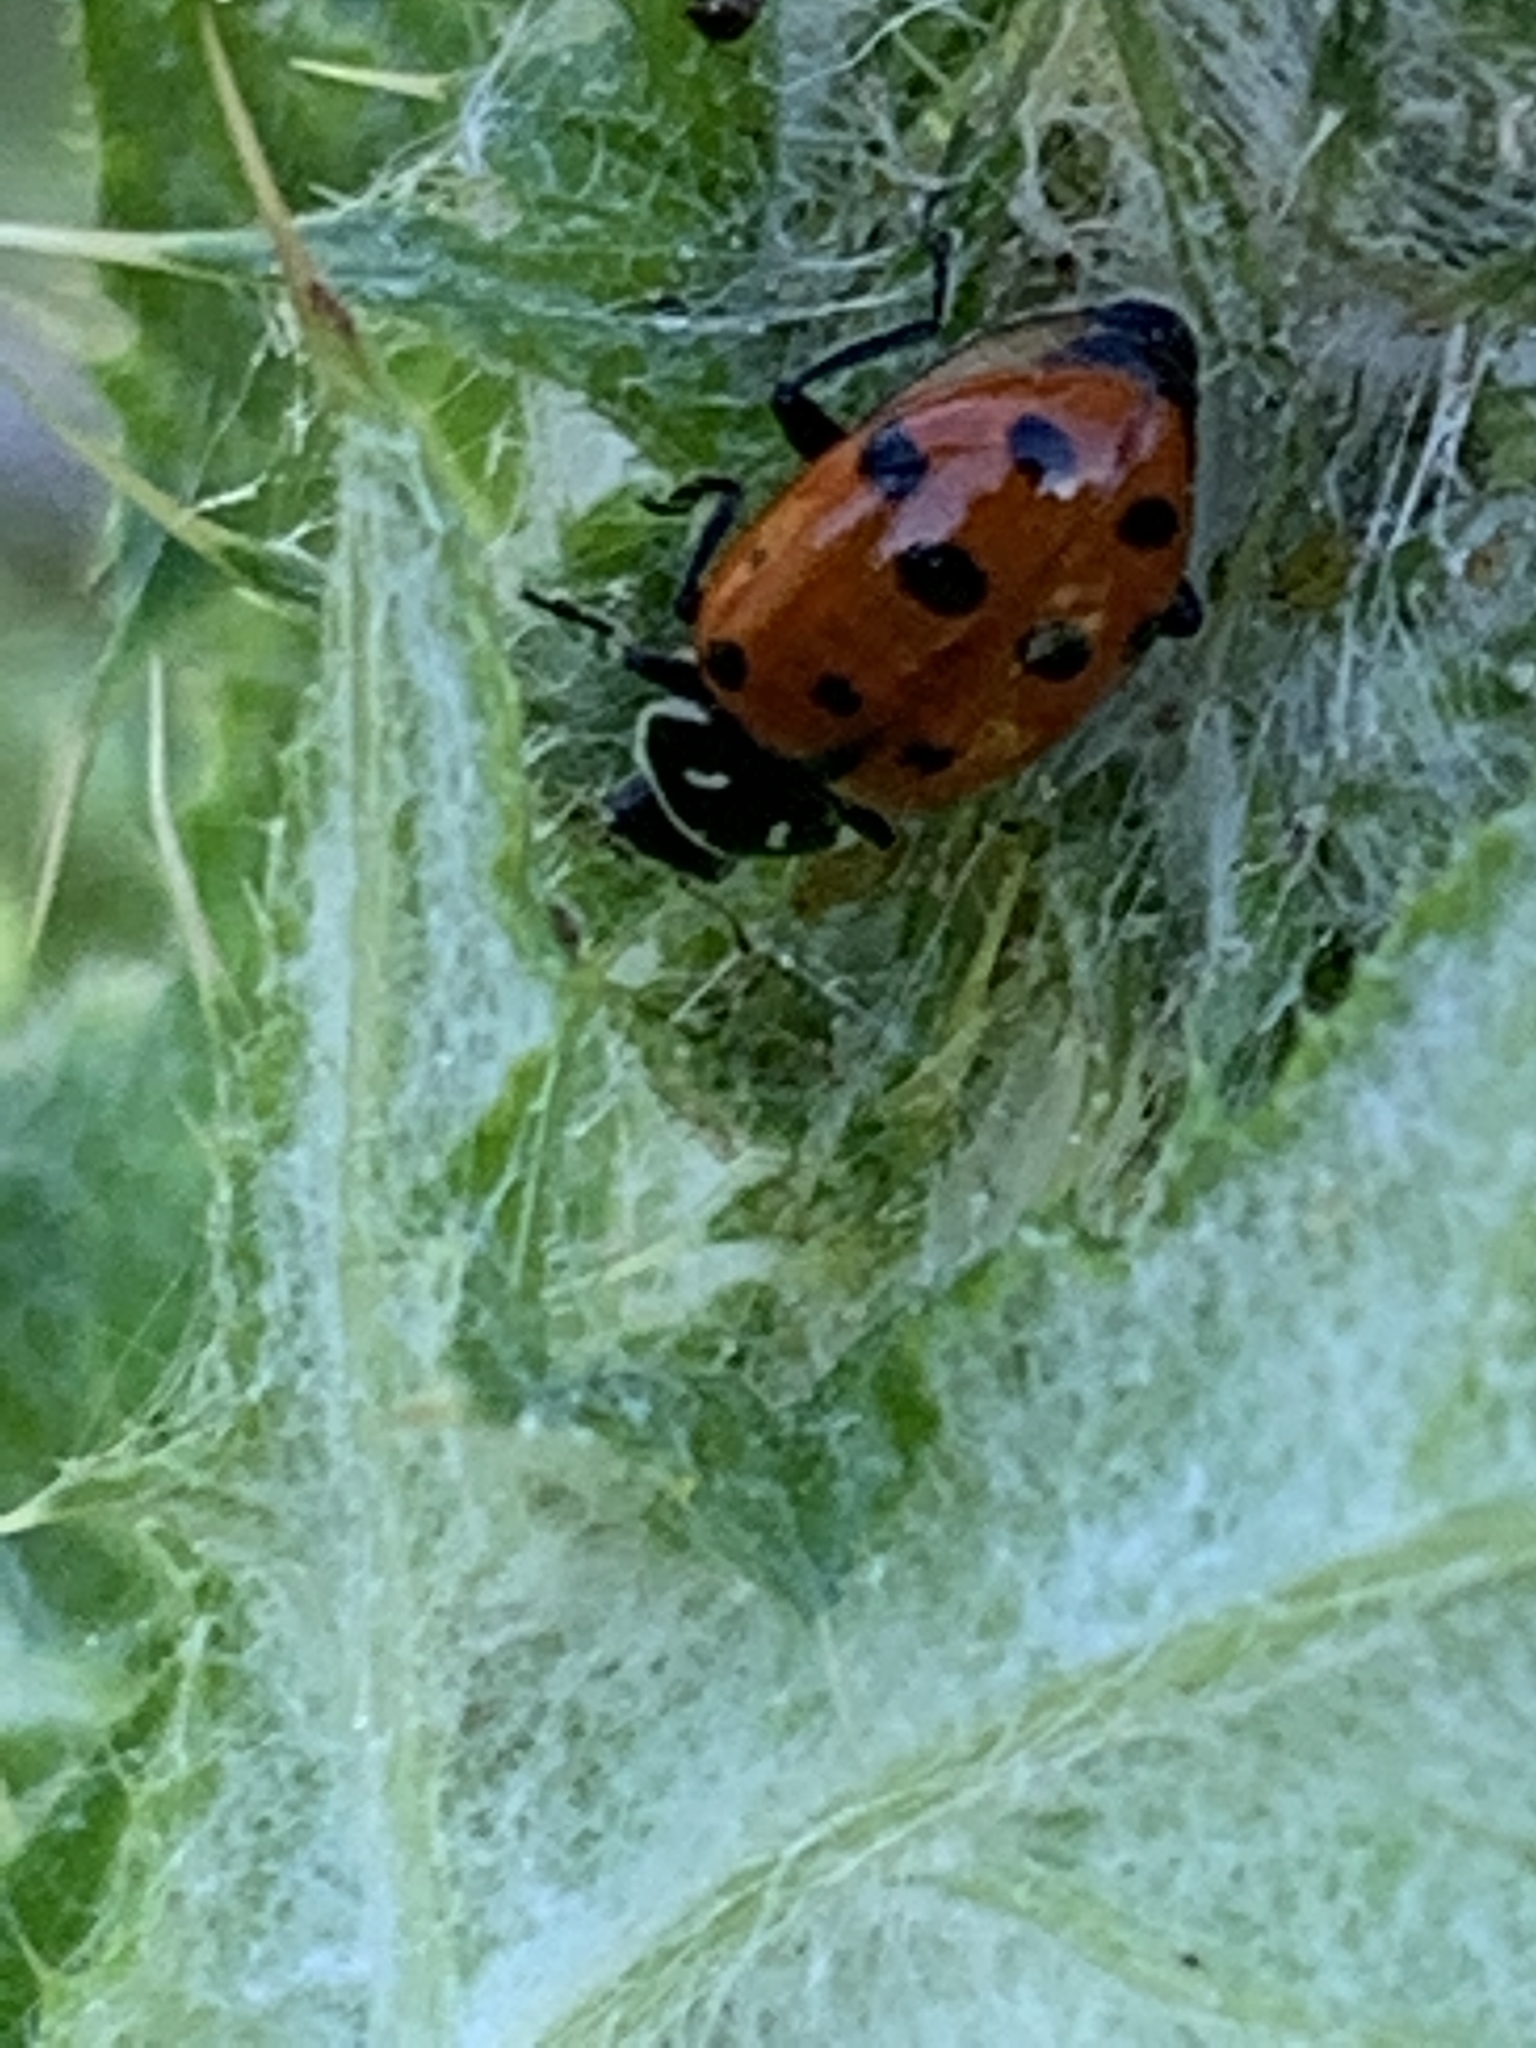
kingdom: Animalia
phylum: Arthropoda
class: Insecta
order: Coleoptera
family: Coccinellidae
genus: Hippodamia
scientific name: Hippodamia convergens
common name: Convergent lady beetle
